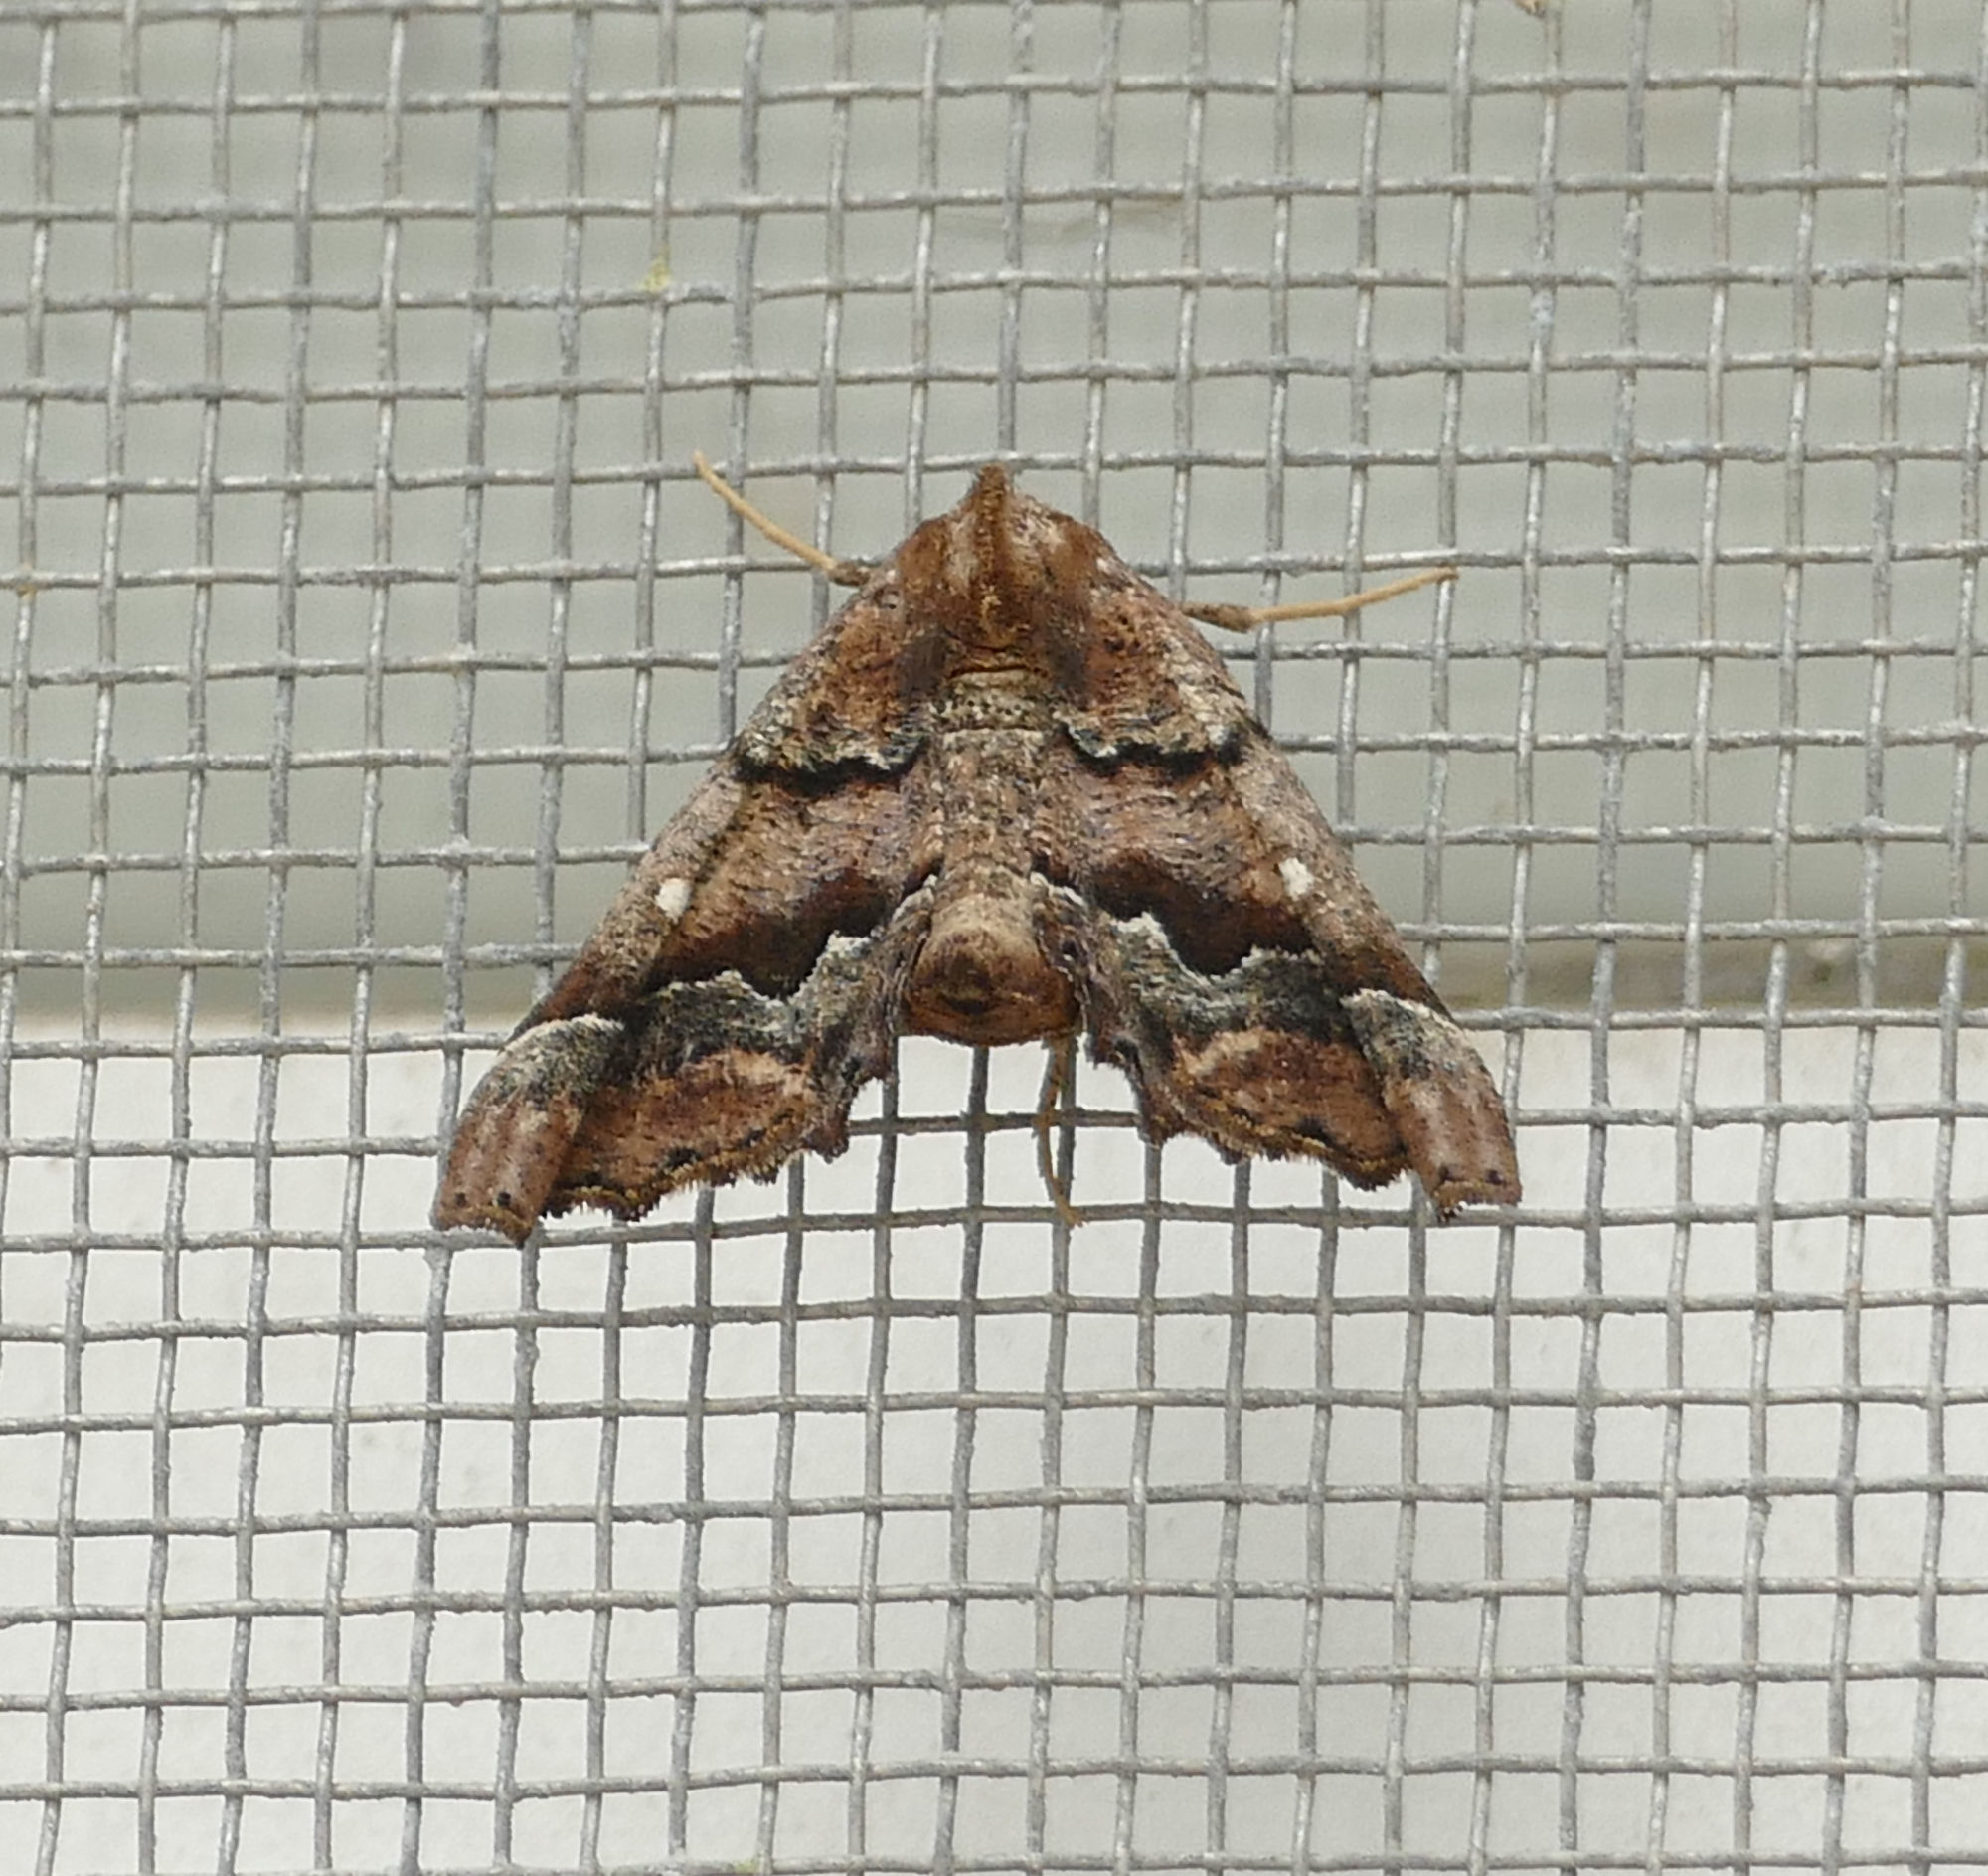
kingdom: Animalia
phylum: Arthropoda
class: Insecta
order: Lepidoptera
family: Geometridae
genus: Pero
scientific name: Pero meskaria
